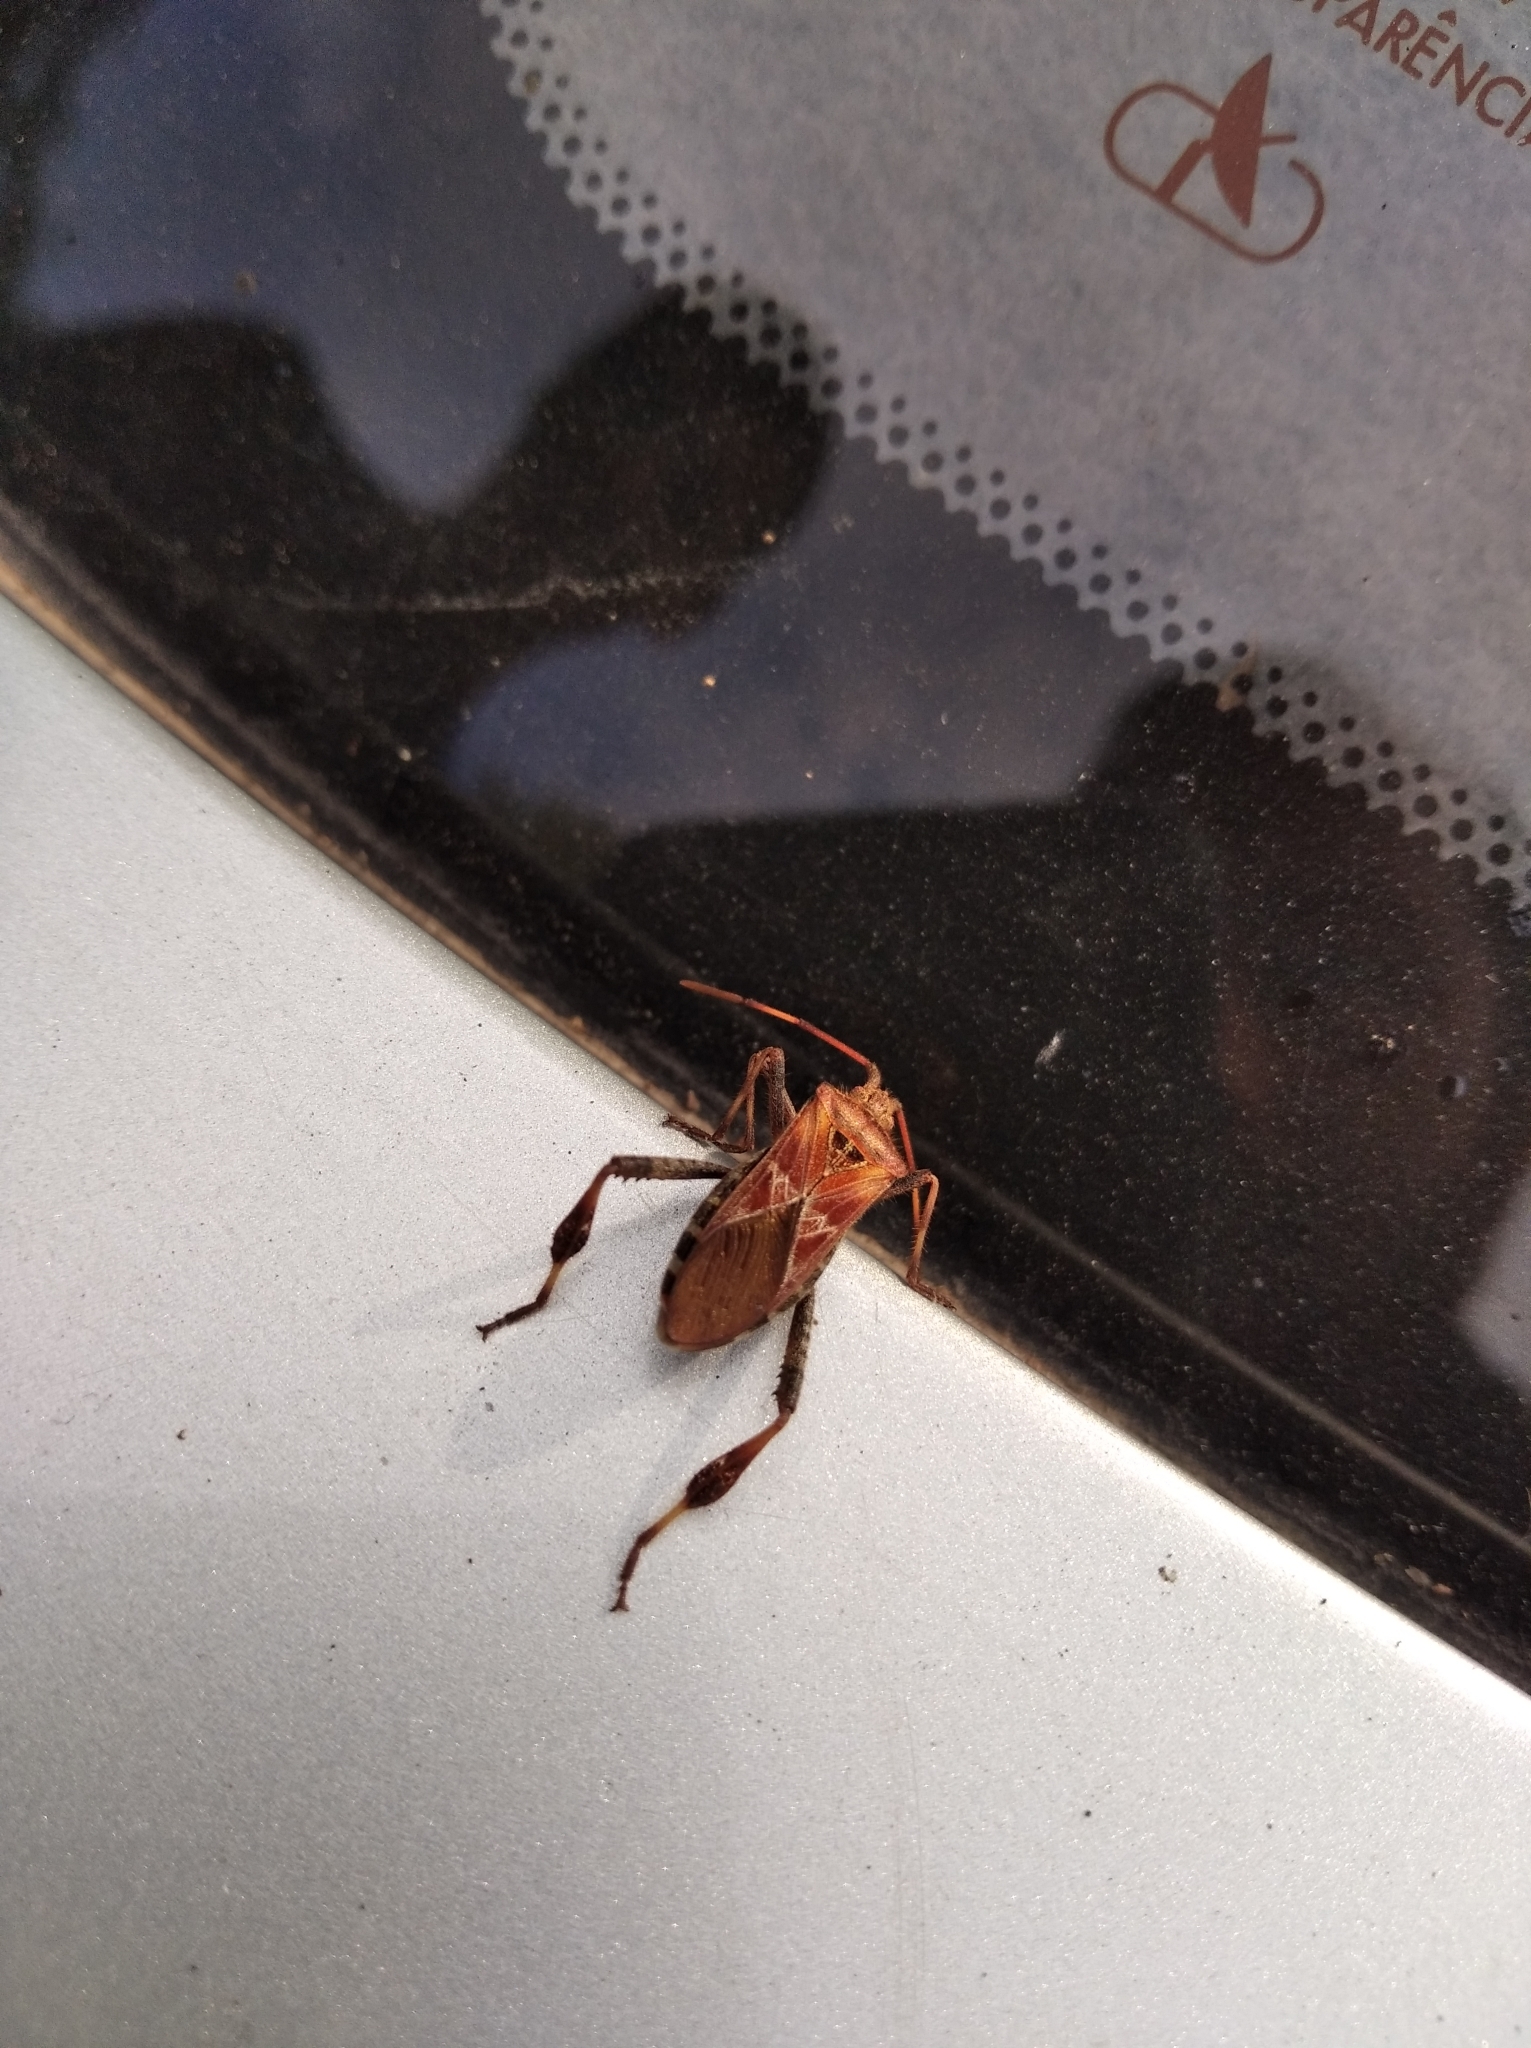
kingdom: Animalia
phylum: Arthropoda
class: Insecta
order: Hemiptera
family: Coreidae
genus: Leptoglossus
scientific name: Leptoglossus occidentalis
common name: Western conifer-seed bug
